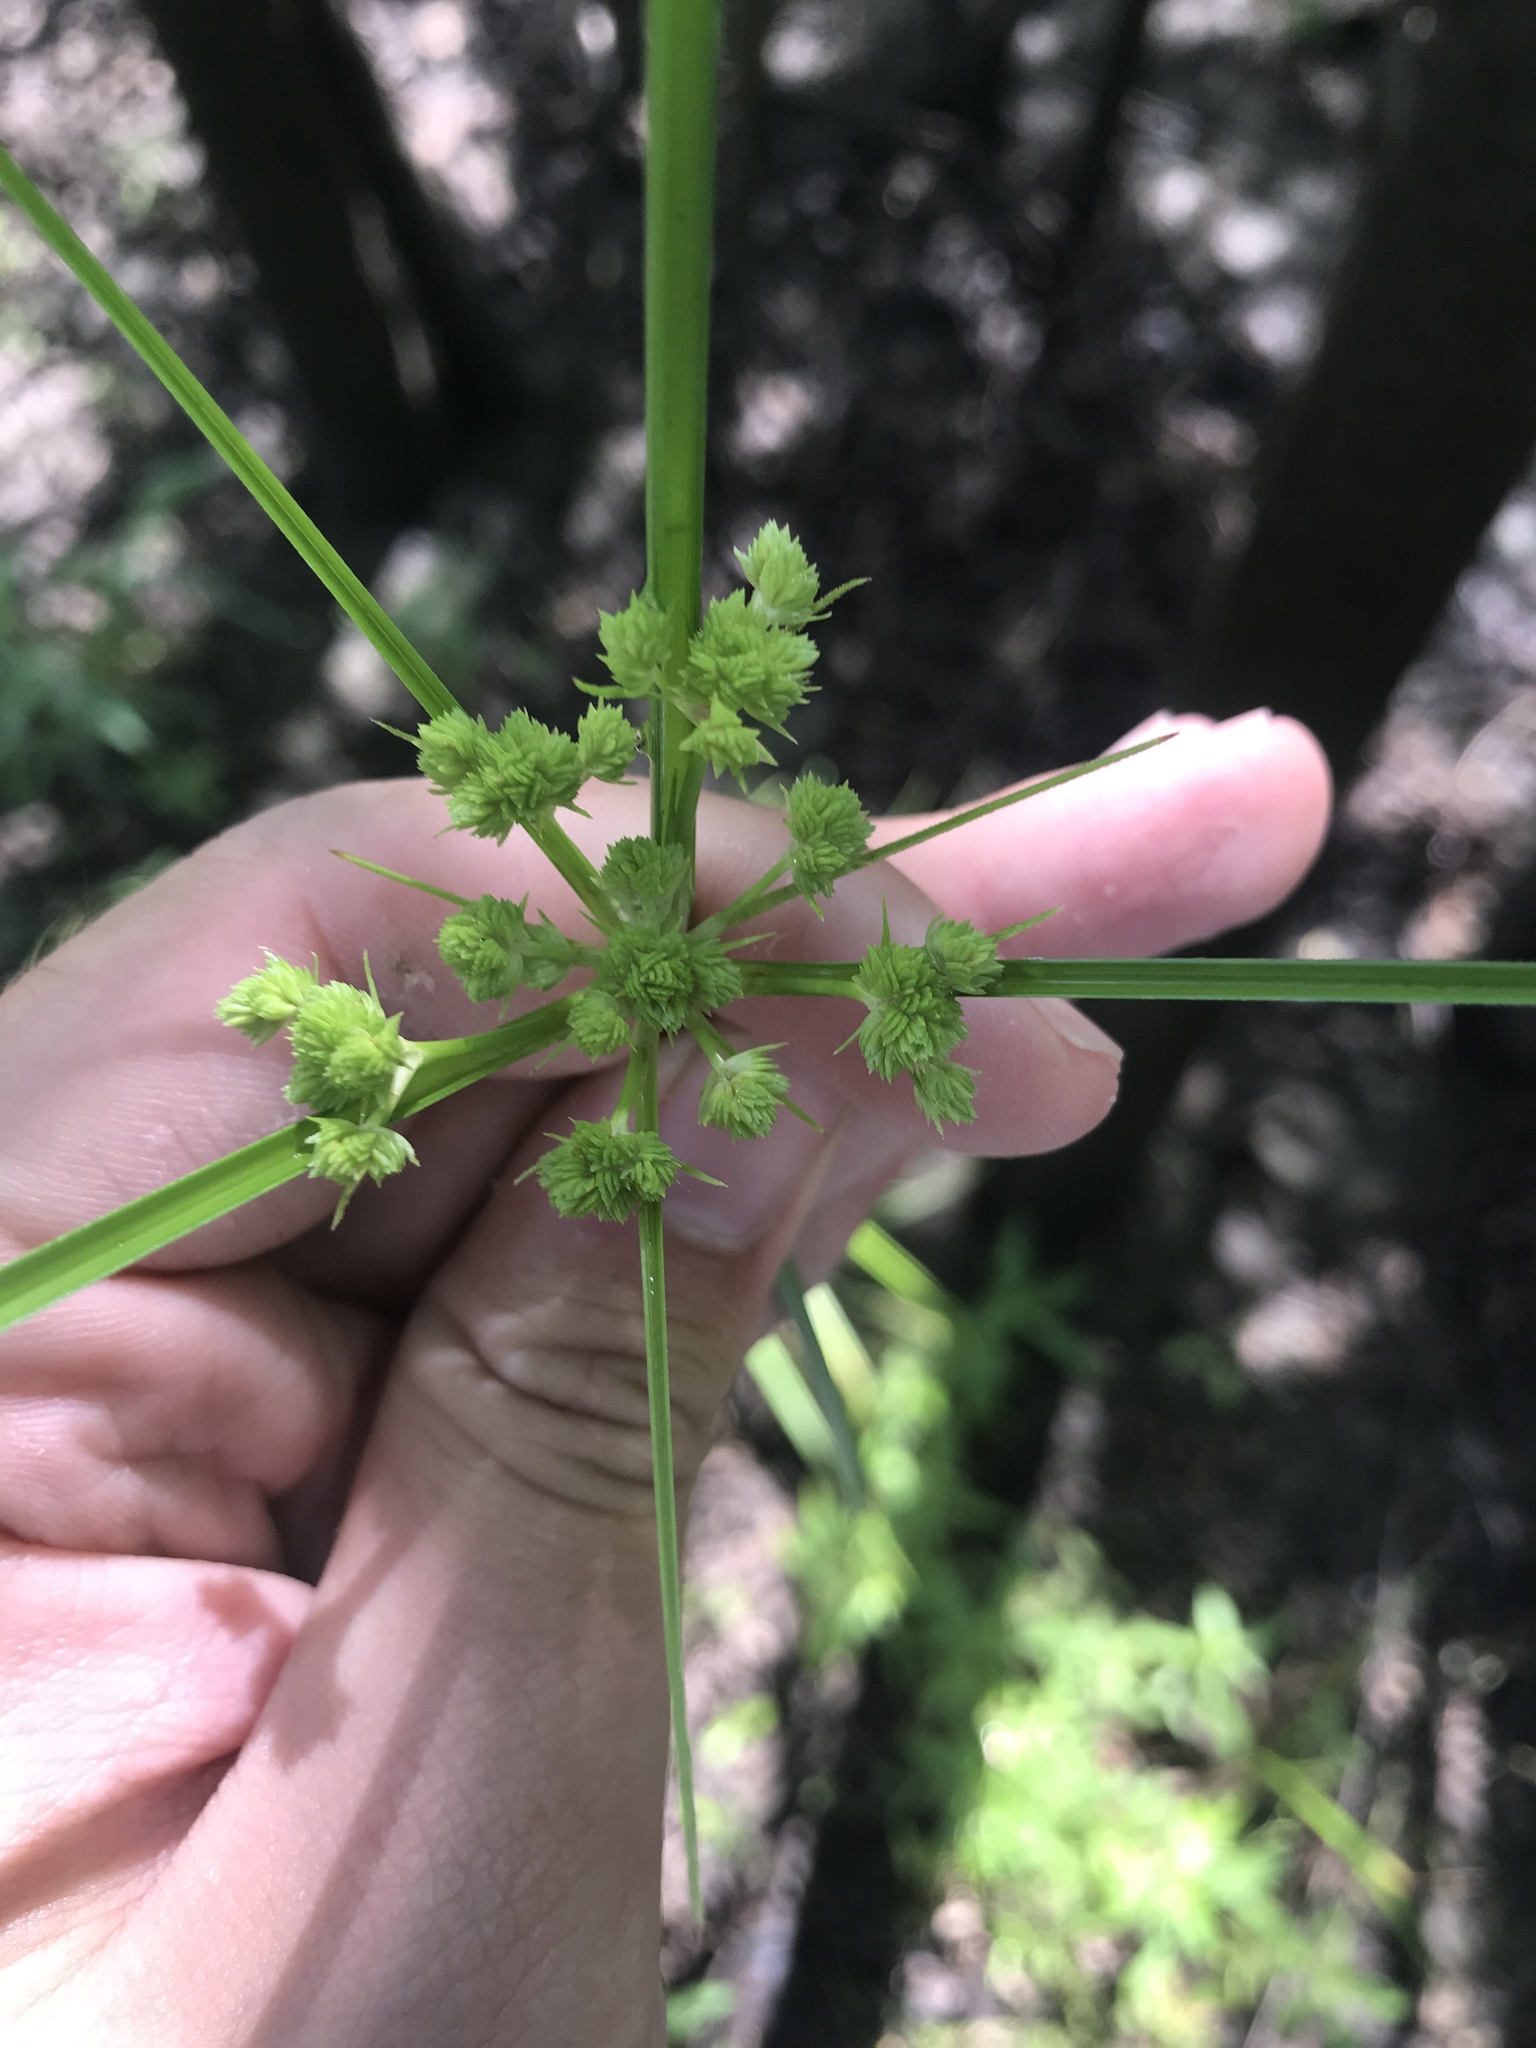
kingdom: Plantae
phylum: Tracheophyta
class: Liliopsida
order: Poales
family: Cyperaceae
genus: Cyperus
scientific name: Cyperus virens
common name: Green flatsedge
